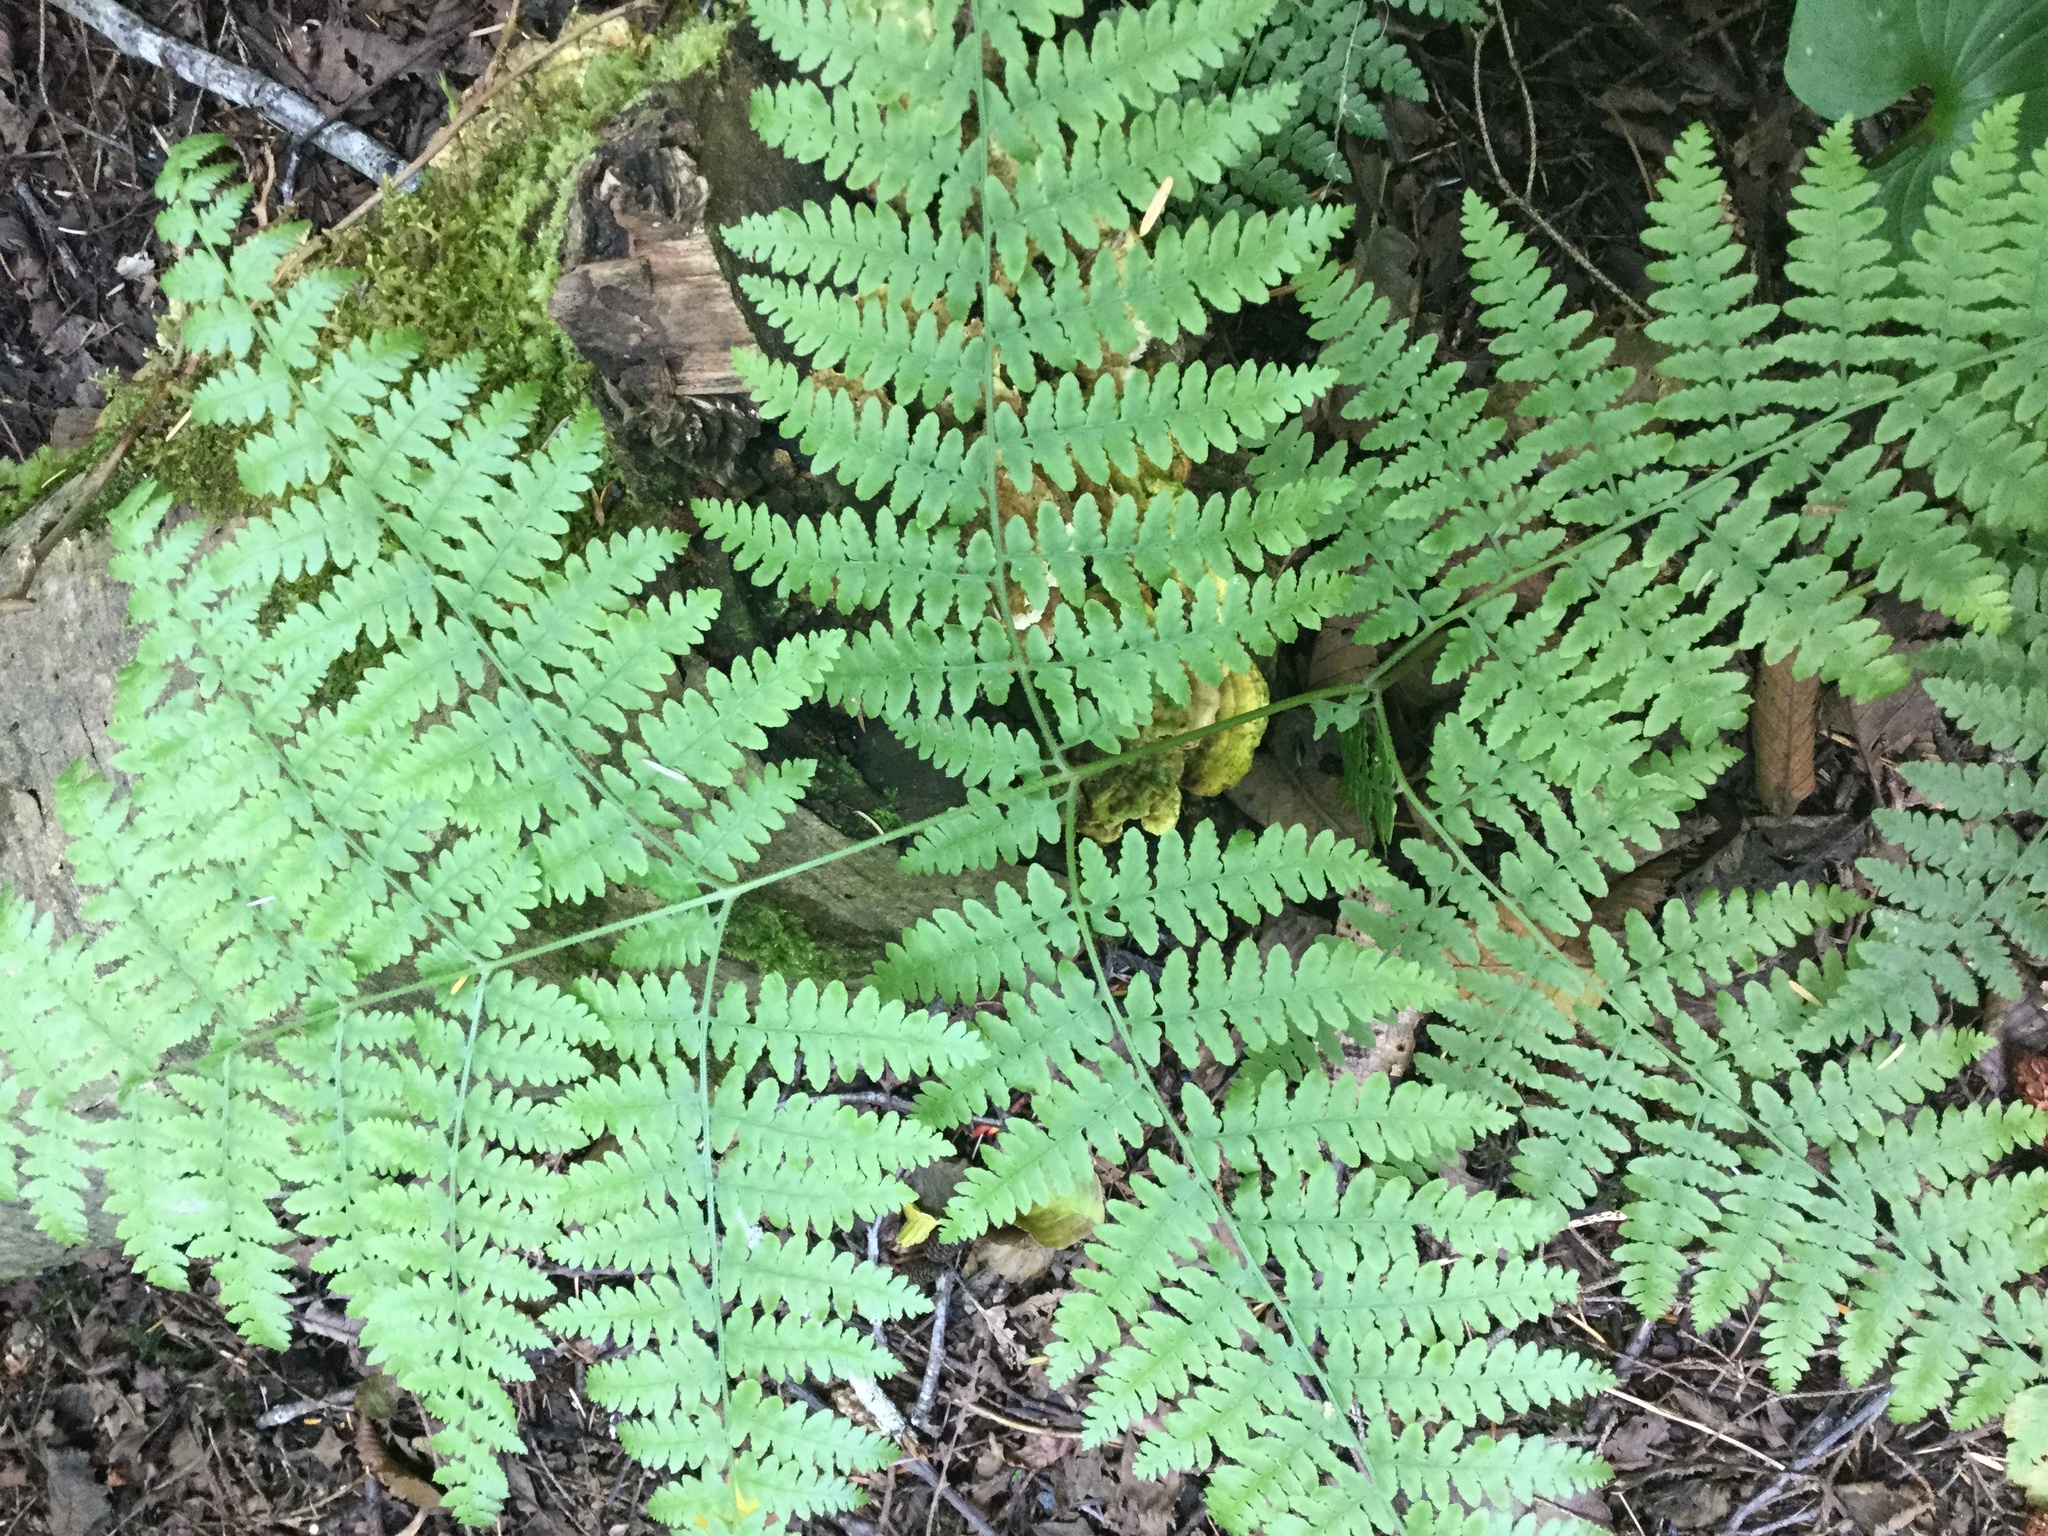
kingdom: Plantae
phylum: Tracheophyta
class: Polypodiopsida
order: Polypodiales
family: Dennstaedtiaceae
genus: Pteridium
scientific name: Pteridium aquilinum
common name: Bracken
